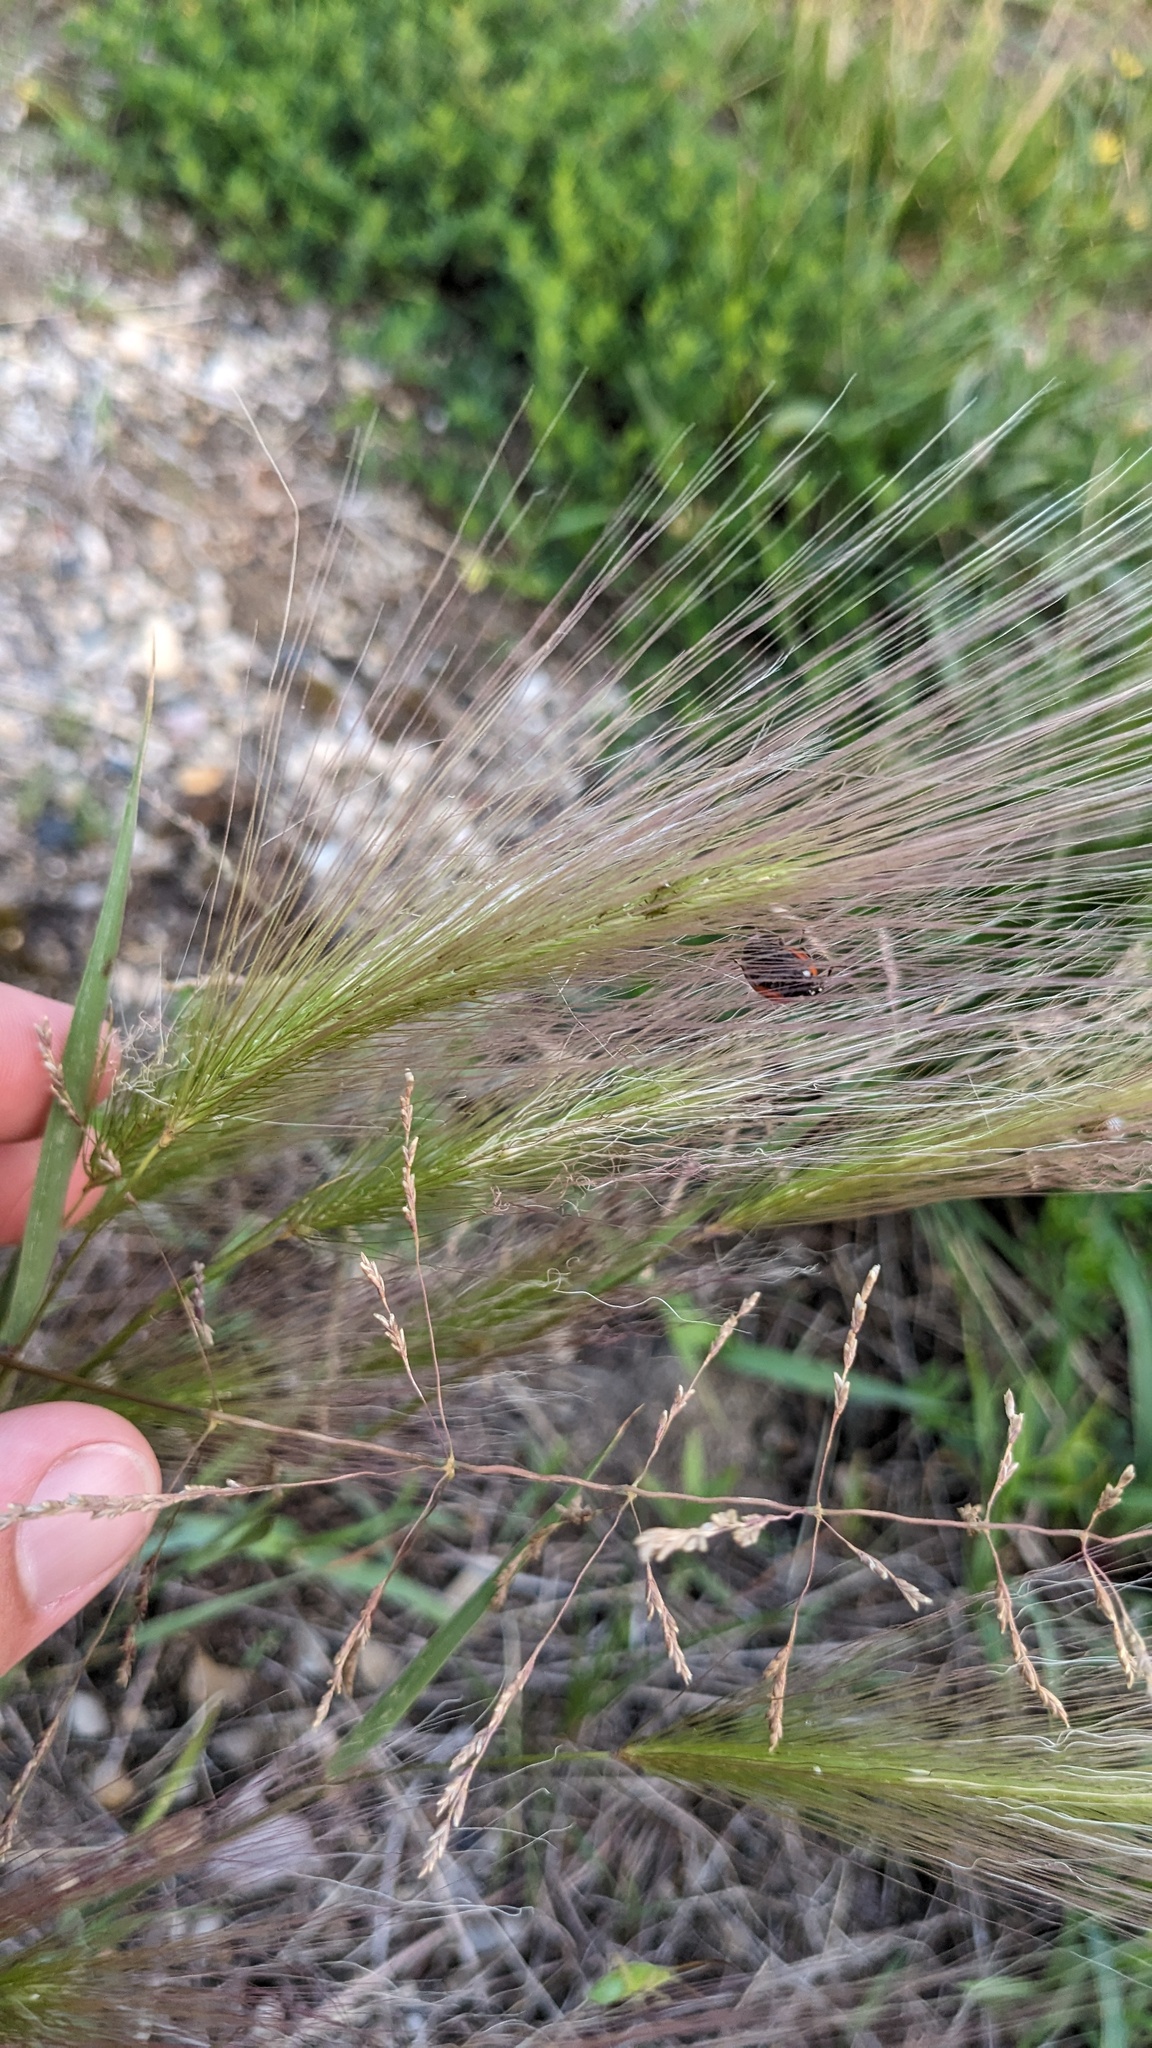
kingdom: Plantae
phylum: Tracheophyta
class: Liliopsida
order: Poales
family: Poaceae
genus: Hordeum
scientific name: Hordeum jubatum
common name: Foxtail barley
